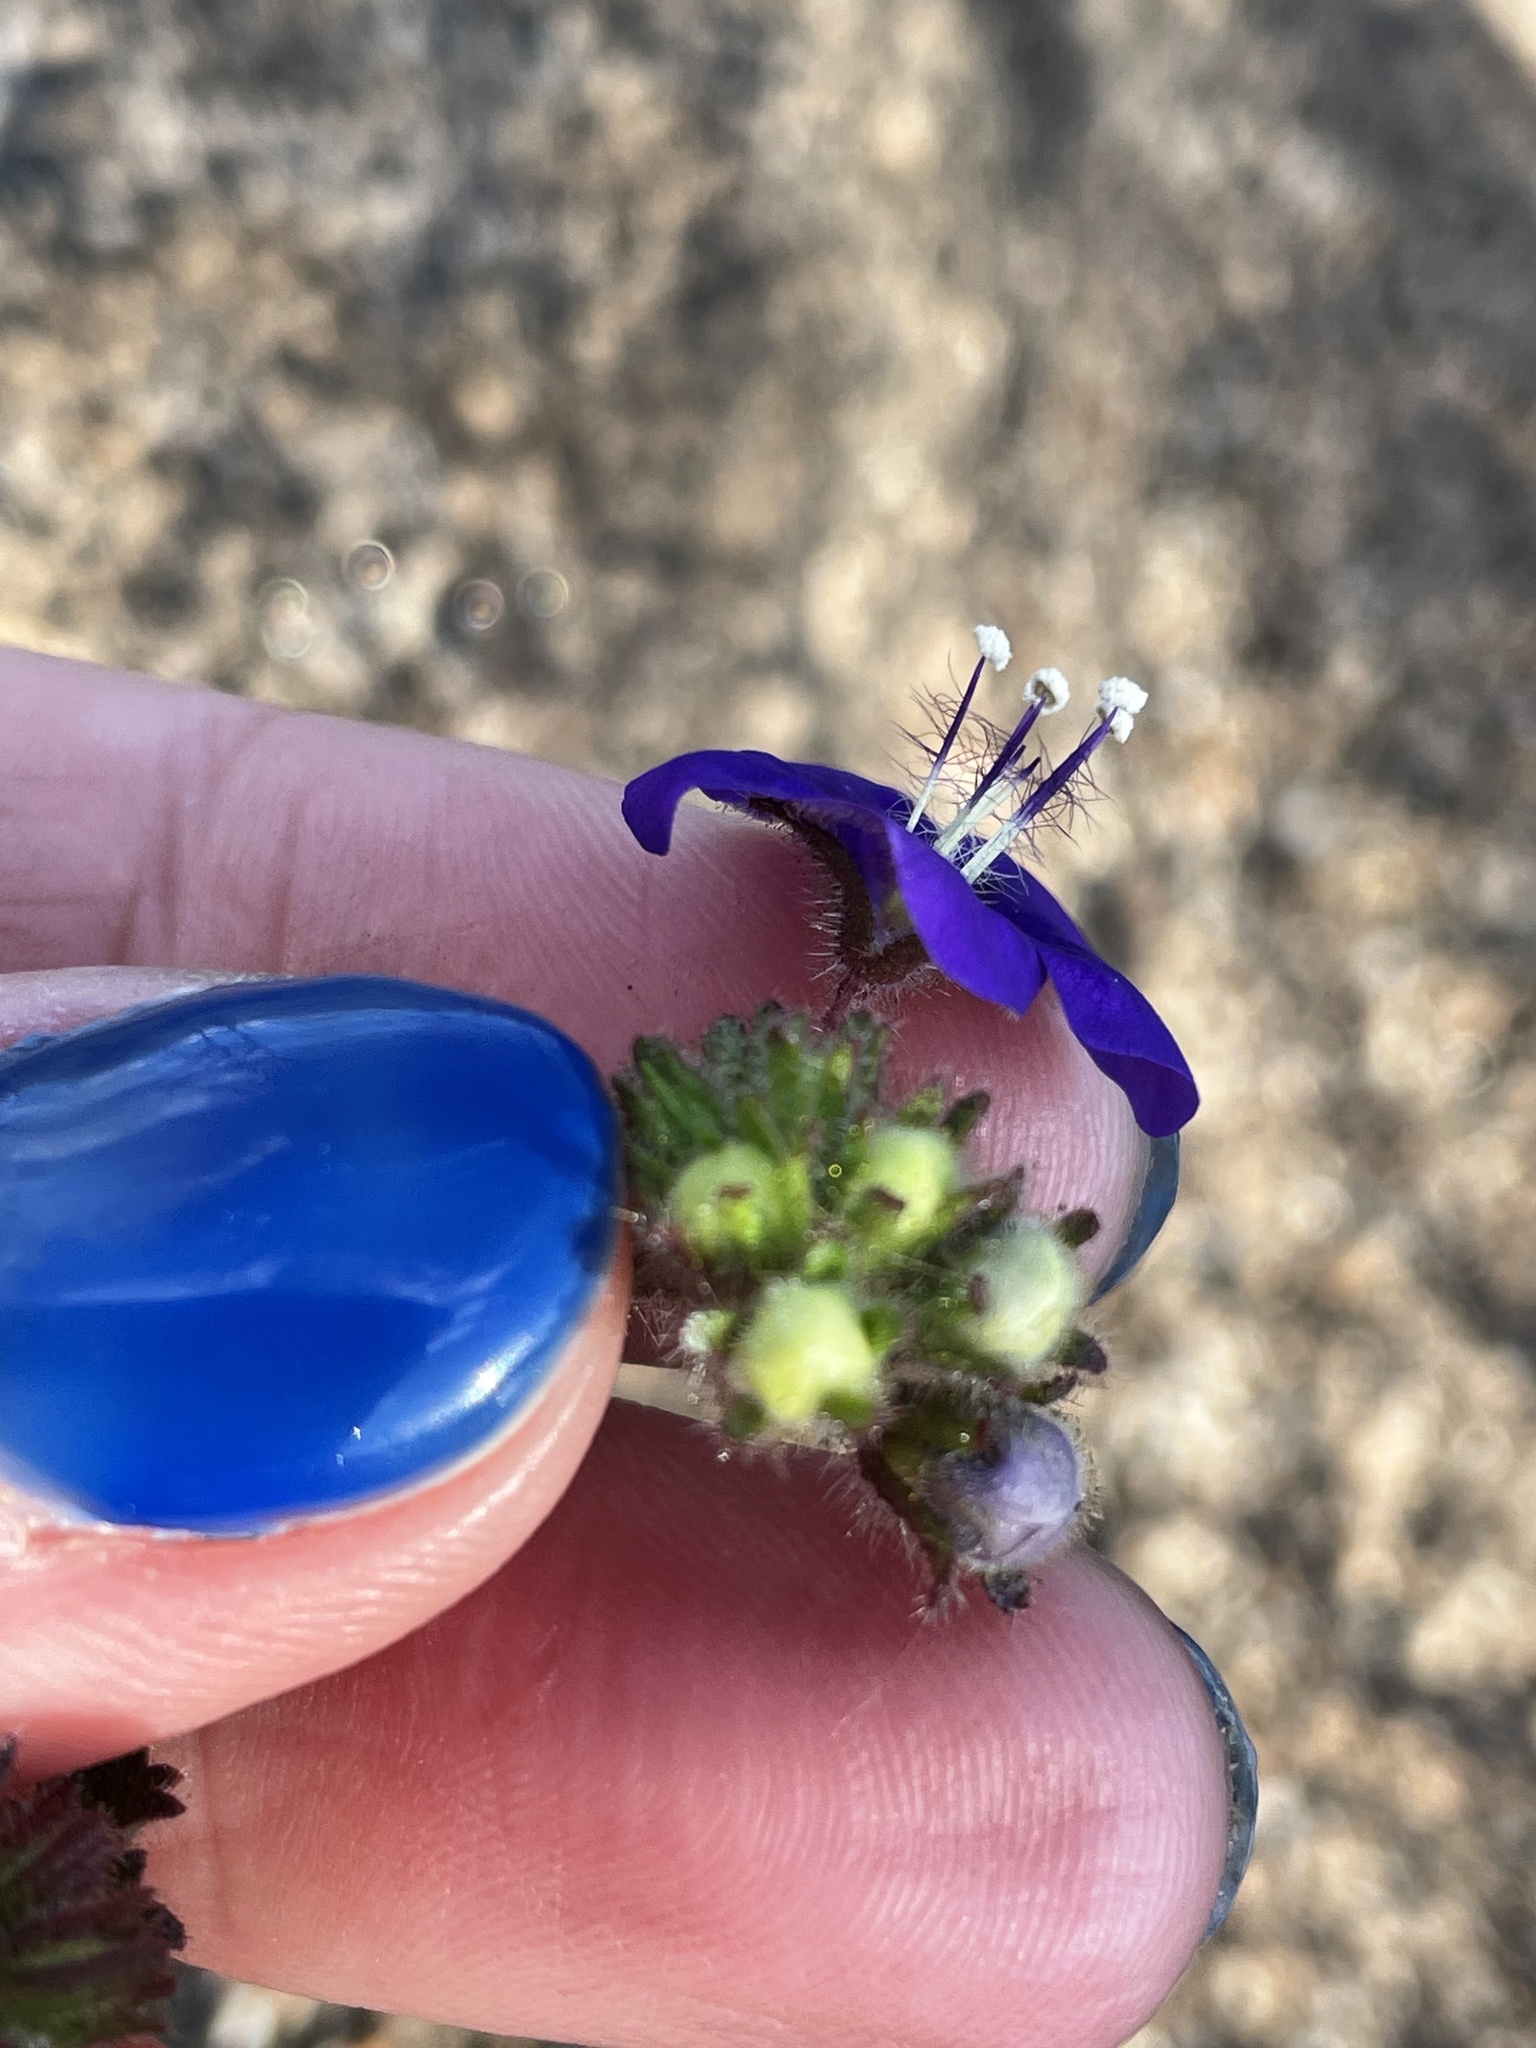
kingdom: Plantae
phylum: Tracheophyta
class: Magnoliopsida
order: Boraginales
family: Hydrophyllaceae
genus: Phacelia
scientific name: Phacelia parryi
